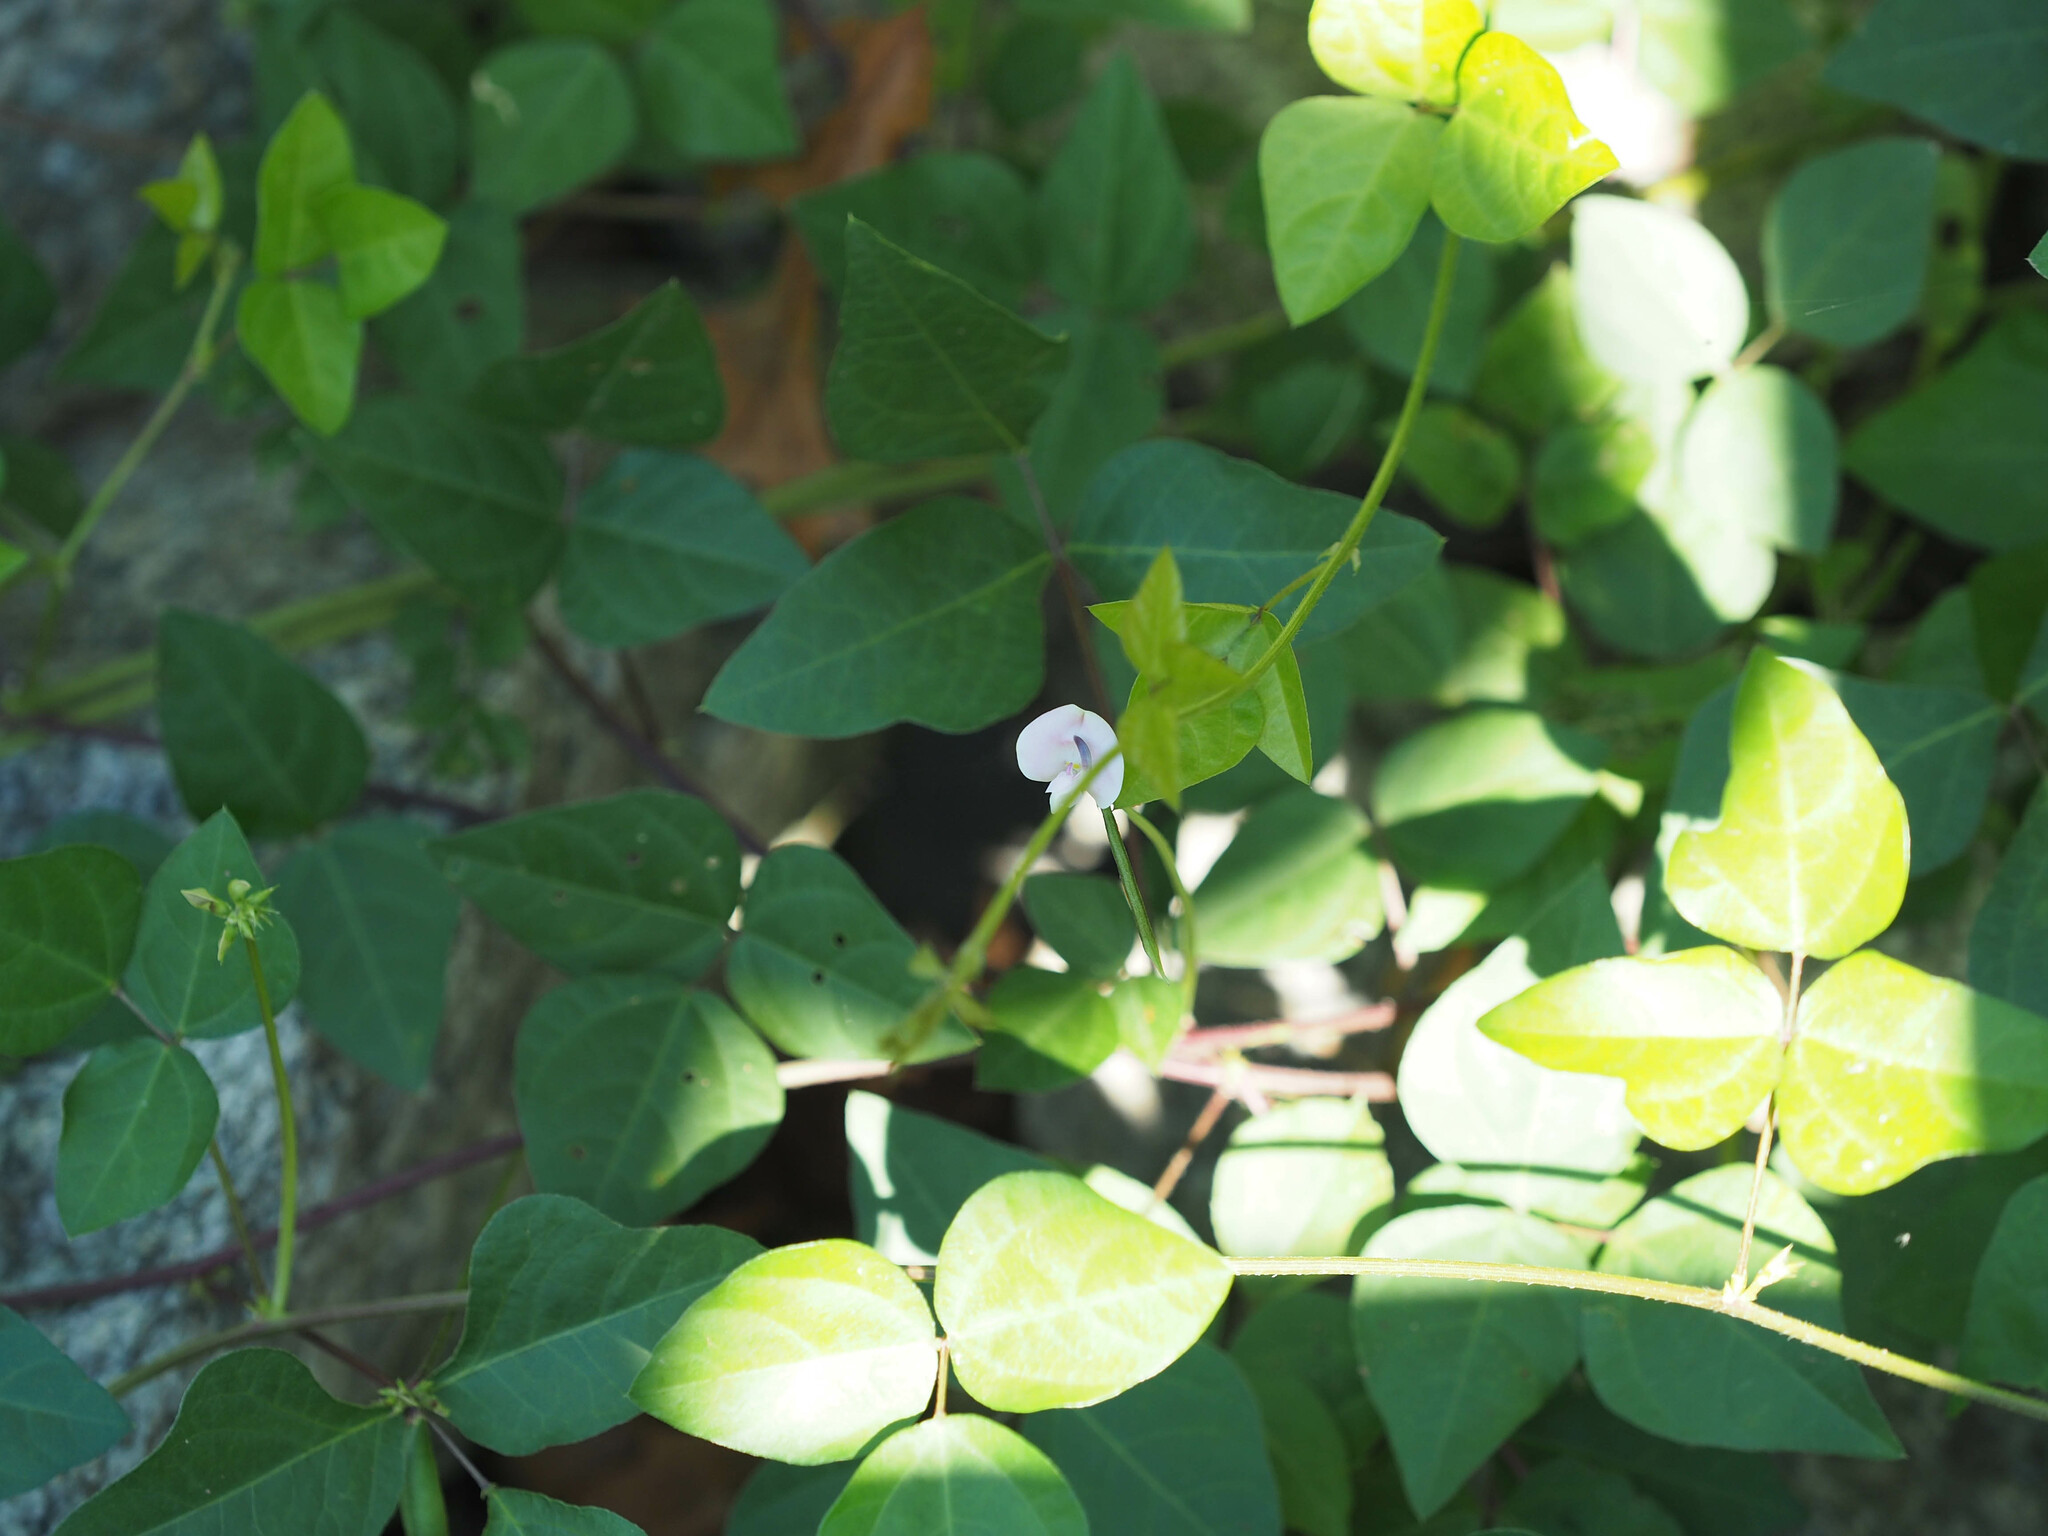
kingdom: Plantae
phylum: Tracheophyta
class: Magnoliopsida
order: Fabales
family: Fabaceae
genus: Strophostyles
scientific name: Strophostyles helvola
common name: Trailing wild bean
